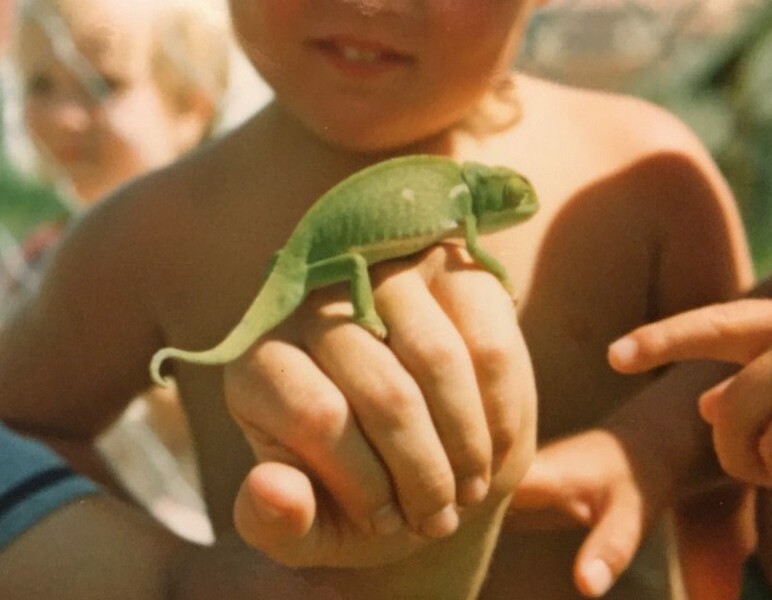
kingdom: Animalia
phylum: Chordata
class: Squamata
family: Chamaeleonidae
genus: Chamaeleo
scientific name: Chamaeleo dilepis
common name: Flapneck chameleon
